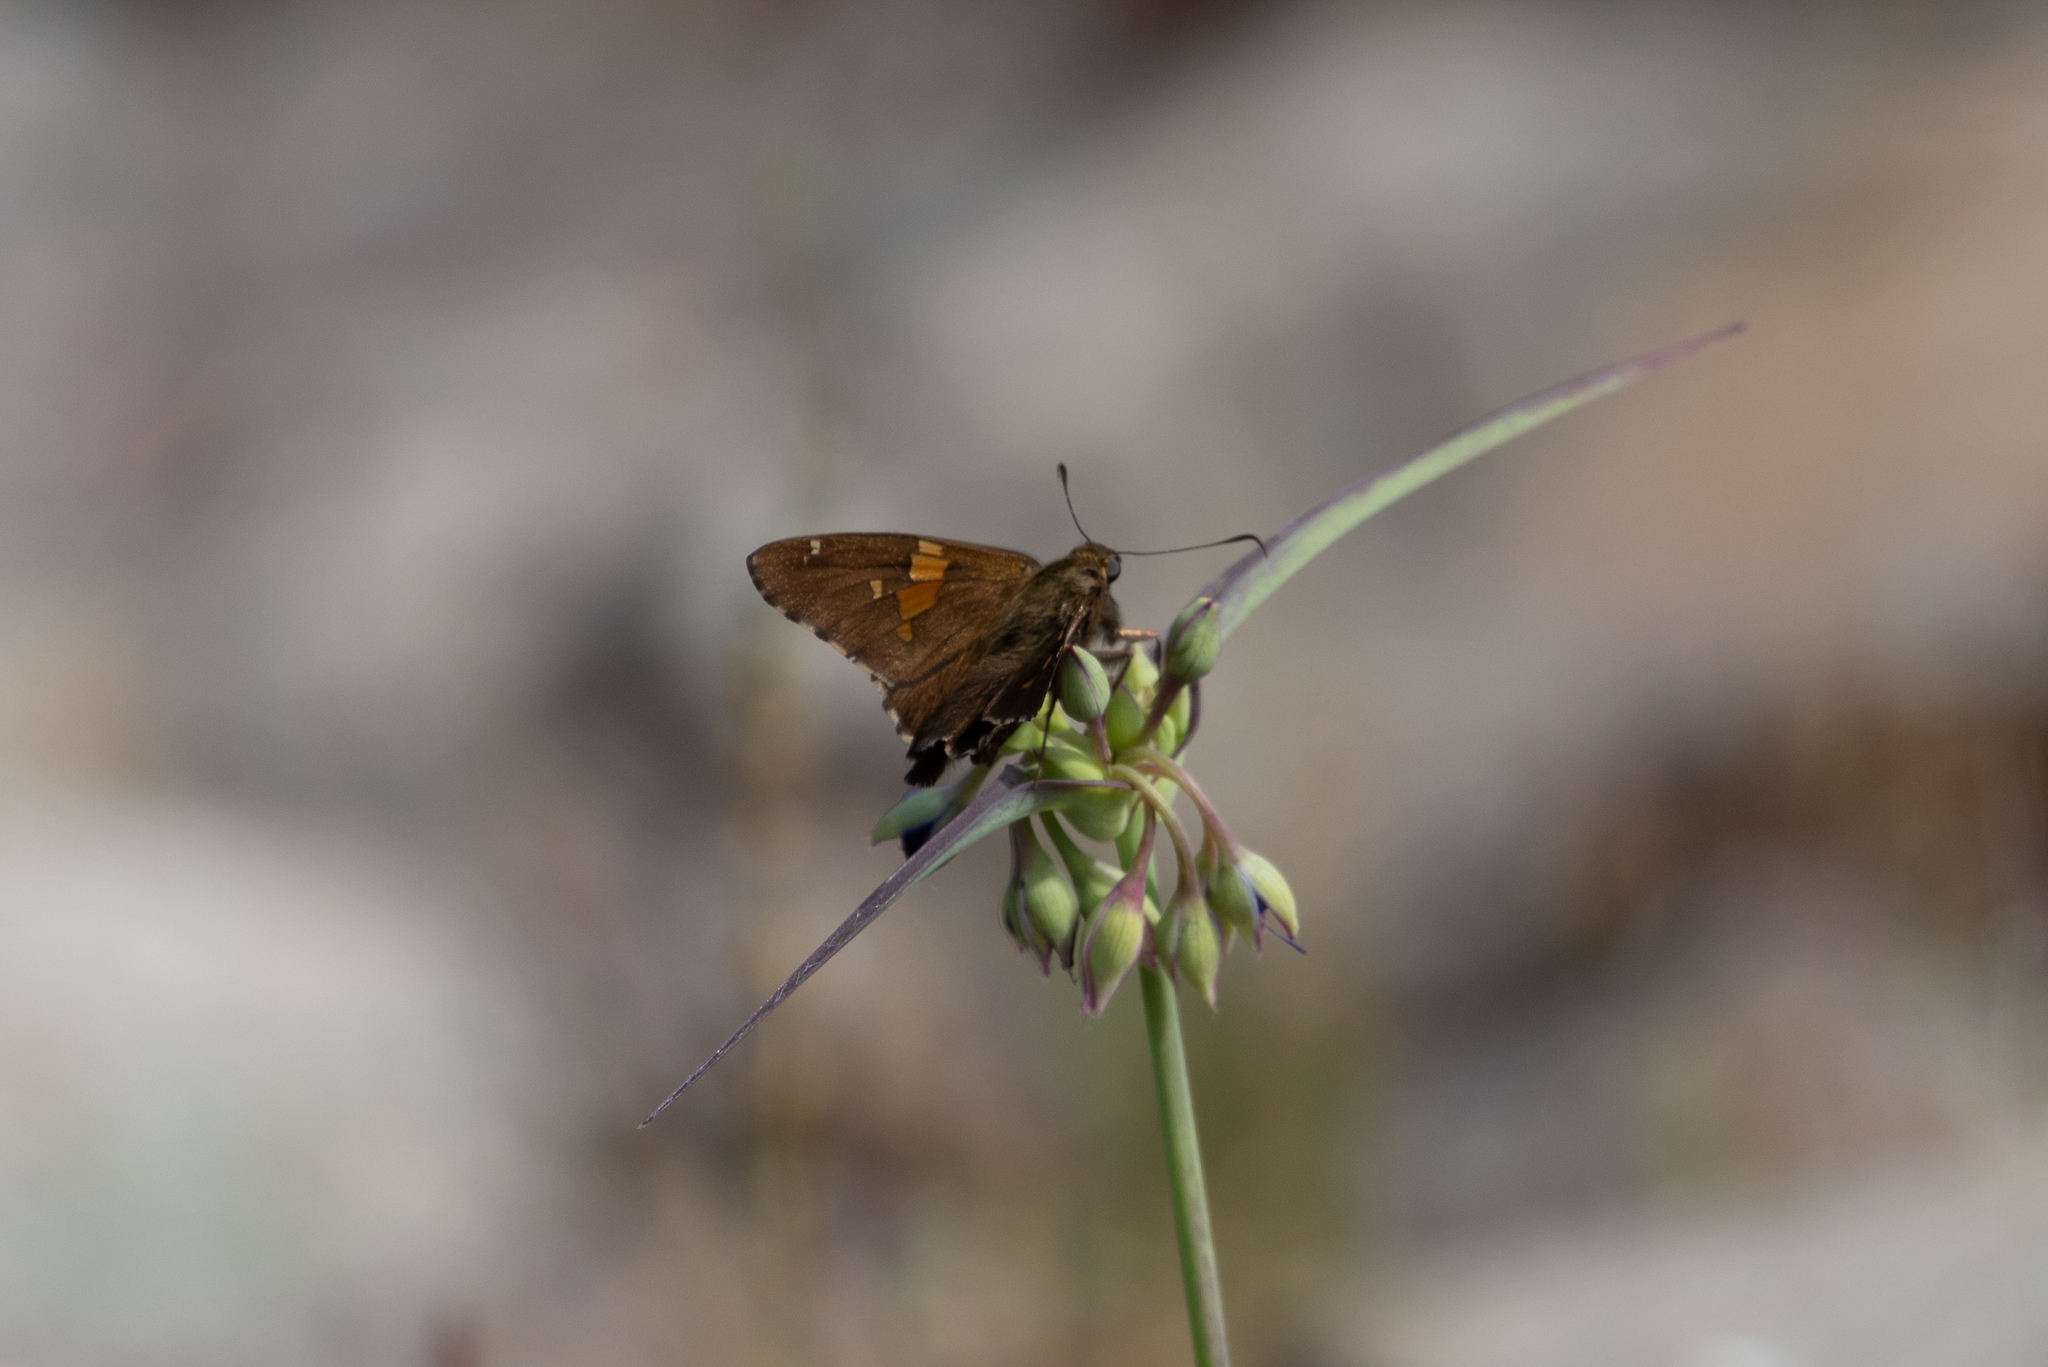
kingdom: Animalia
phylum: Arthropoda
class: Insecta
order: Lepidoptera
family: Hesperiidae
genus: Epargyreus
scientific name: Epargyreus clarus
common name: Silver-spotted skipper
